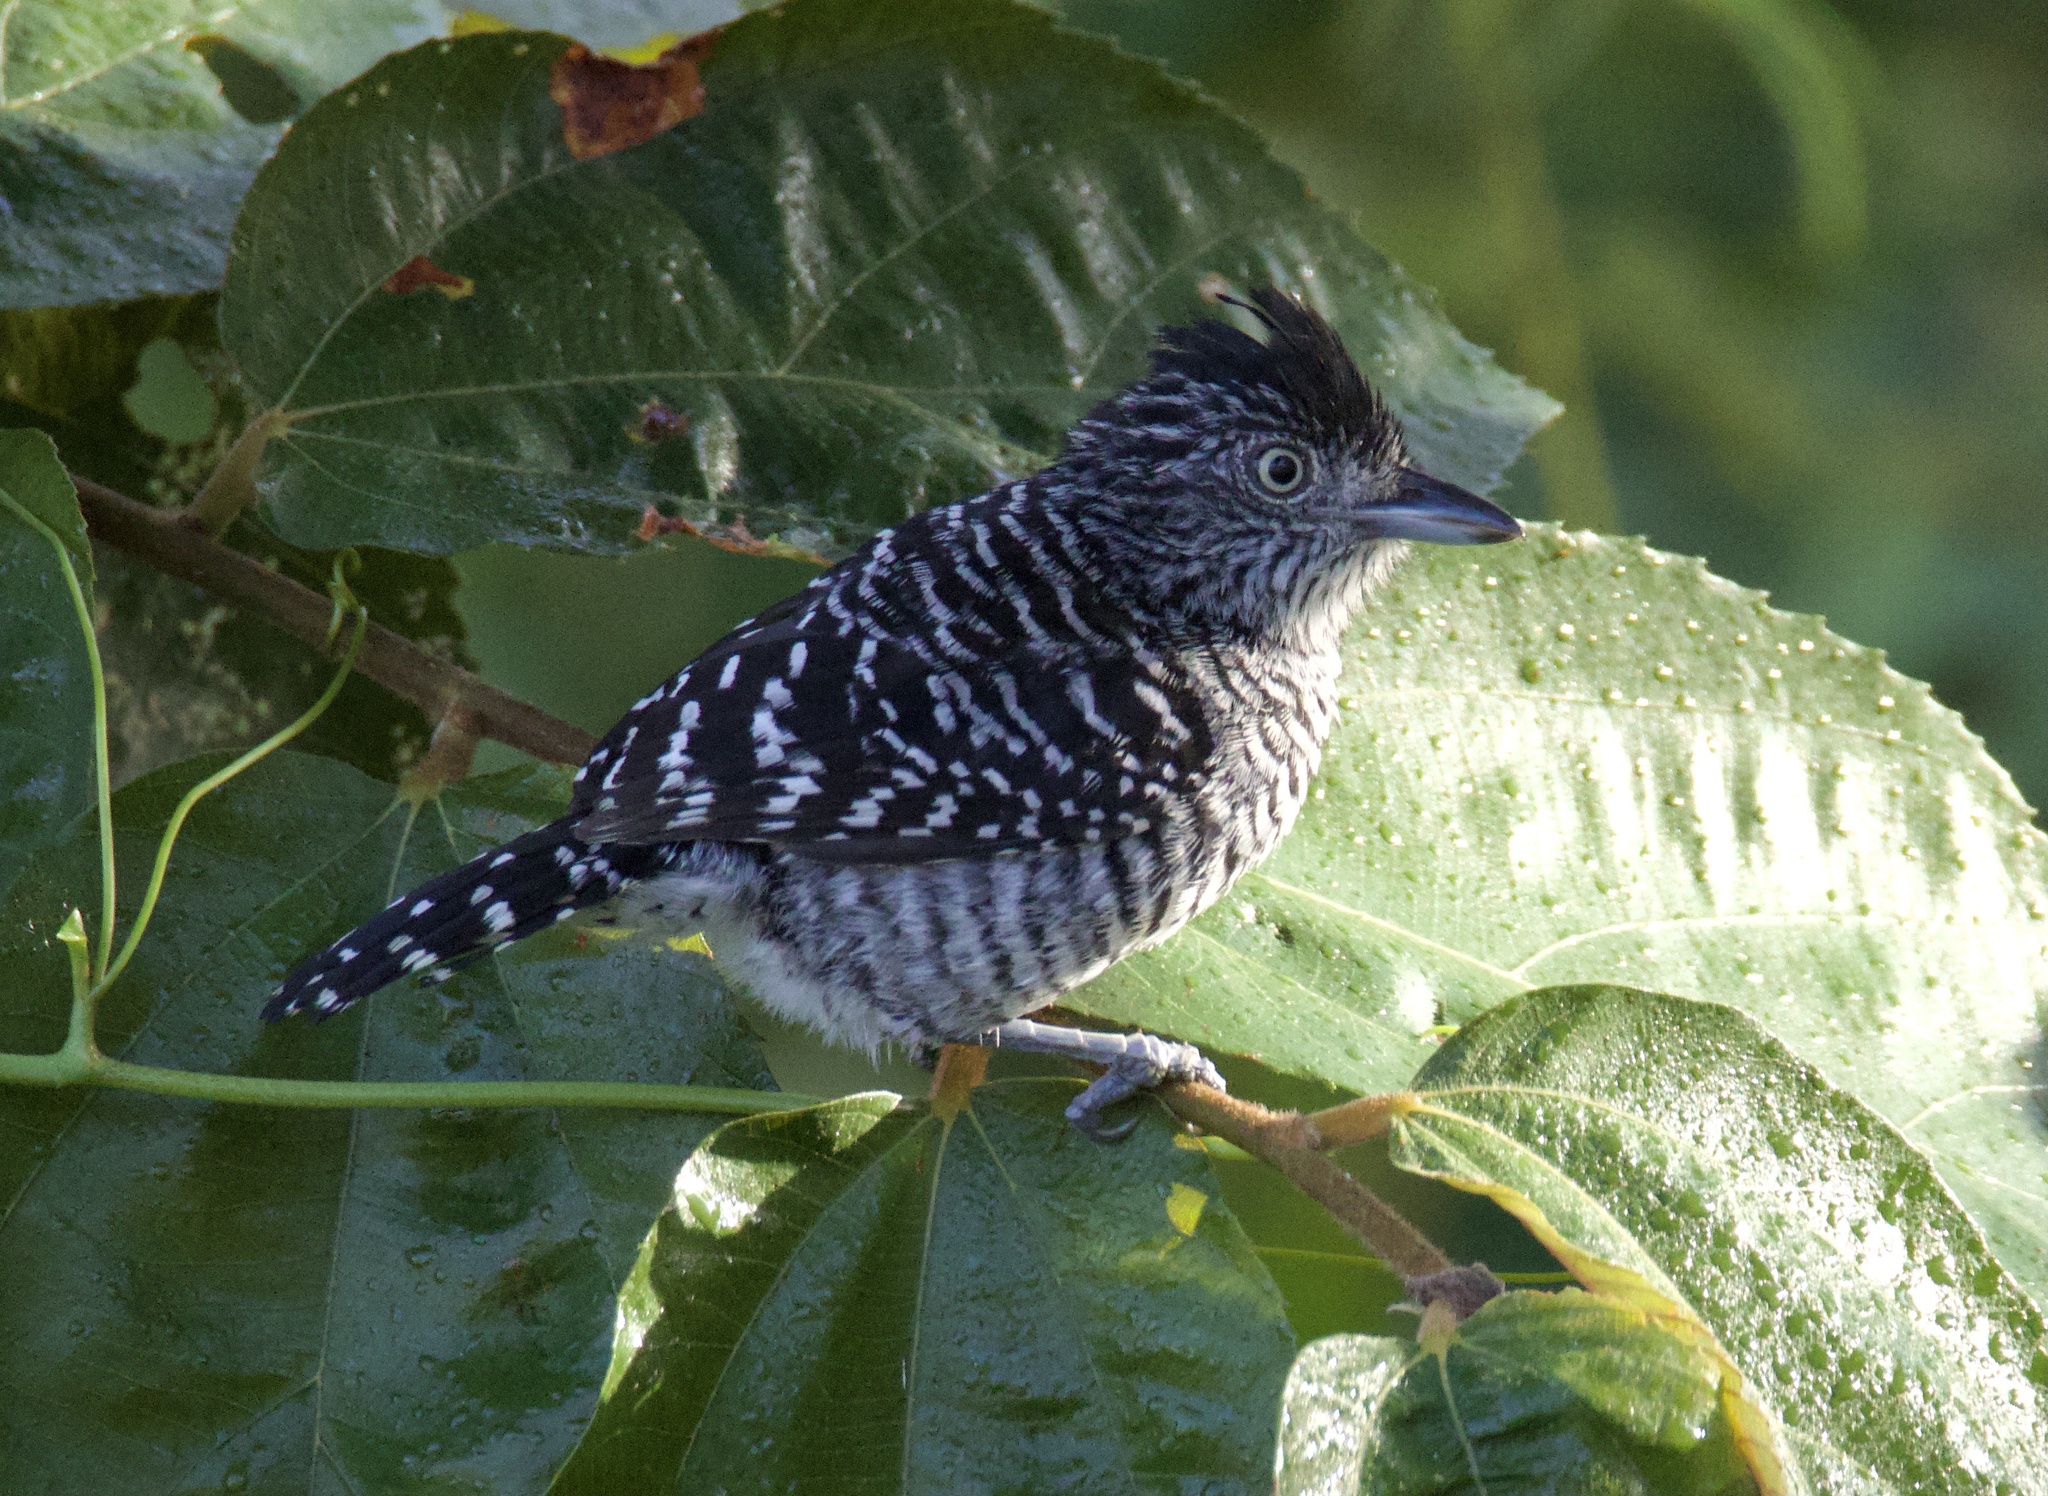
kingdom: Animalia
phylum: Chordata
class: Aves
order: Passeriformes
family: Thamnophilidae
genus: Thamnophilus
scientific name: Thamnophilus doliatus
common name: Barred antshrike
